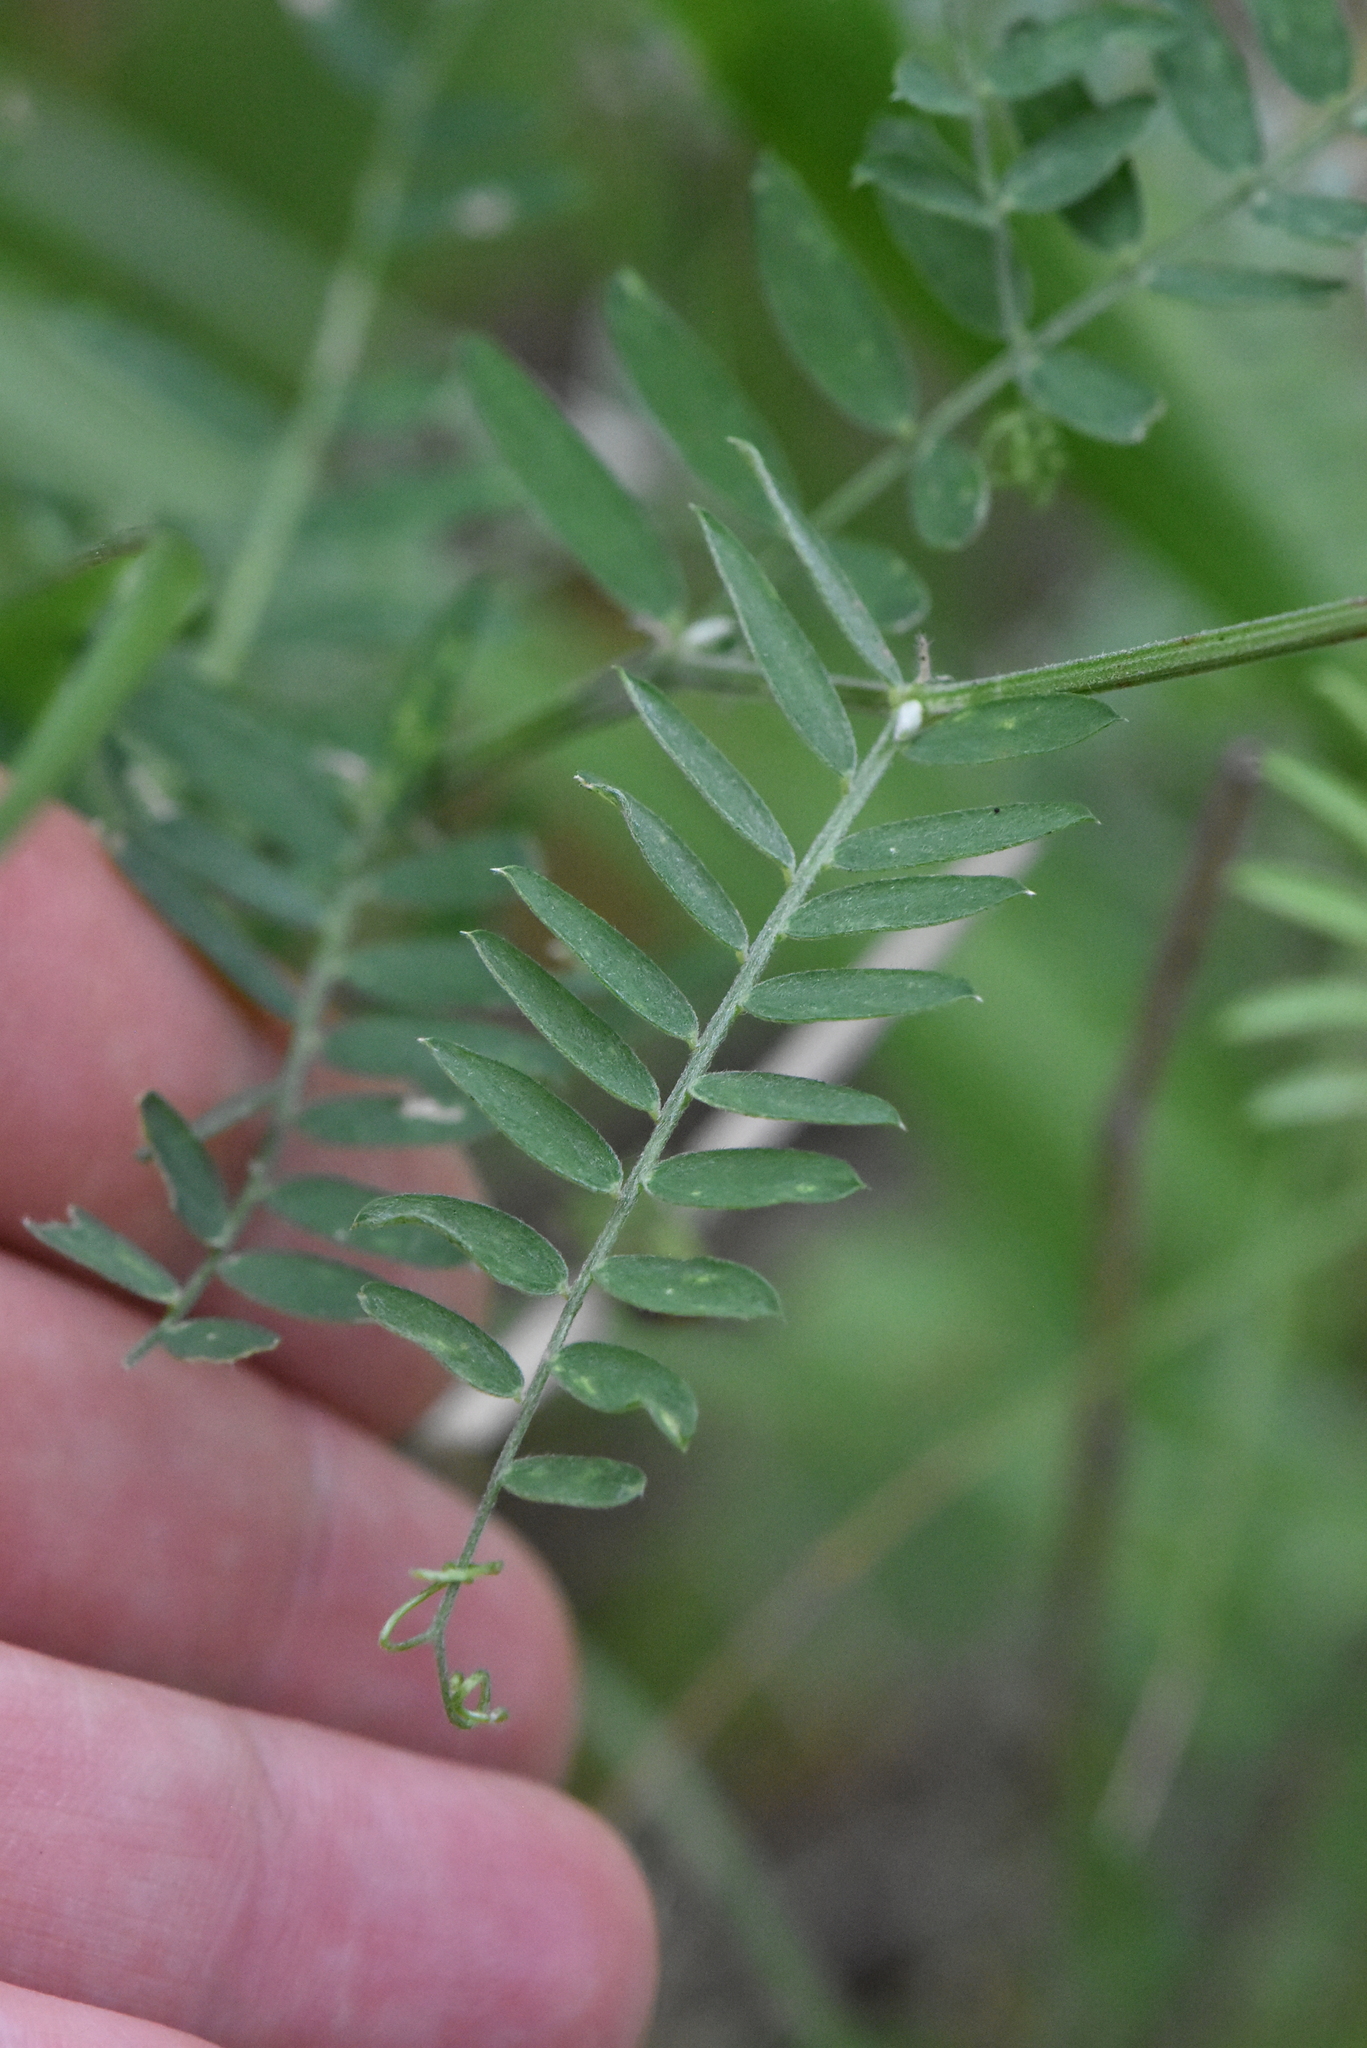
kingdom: Plantae
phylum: Tracheophyta
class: Magnoliopsida
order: Fabales
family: Fabaceae
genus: Vicia
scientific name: Vicia cracca
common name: Bird vetch
